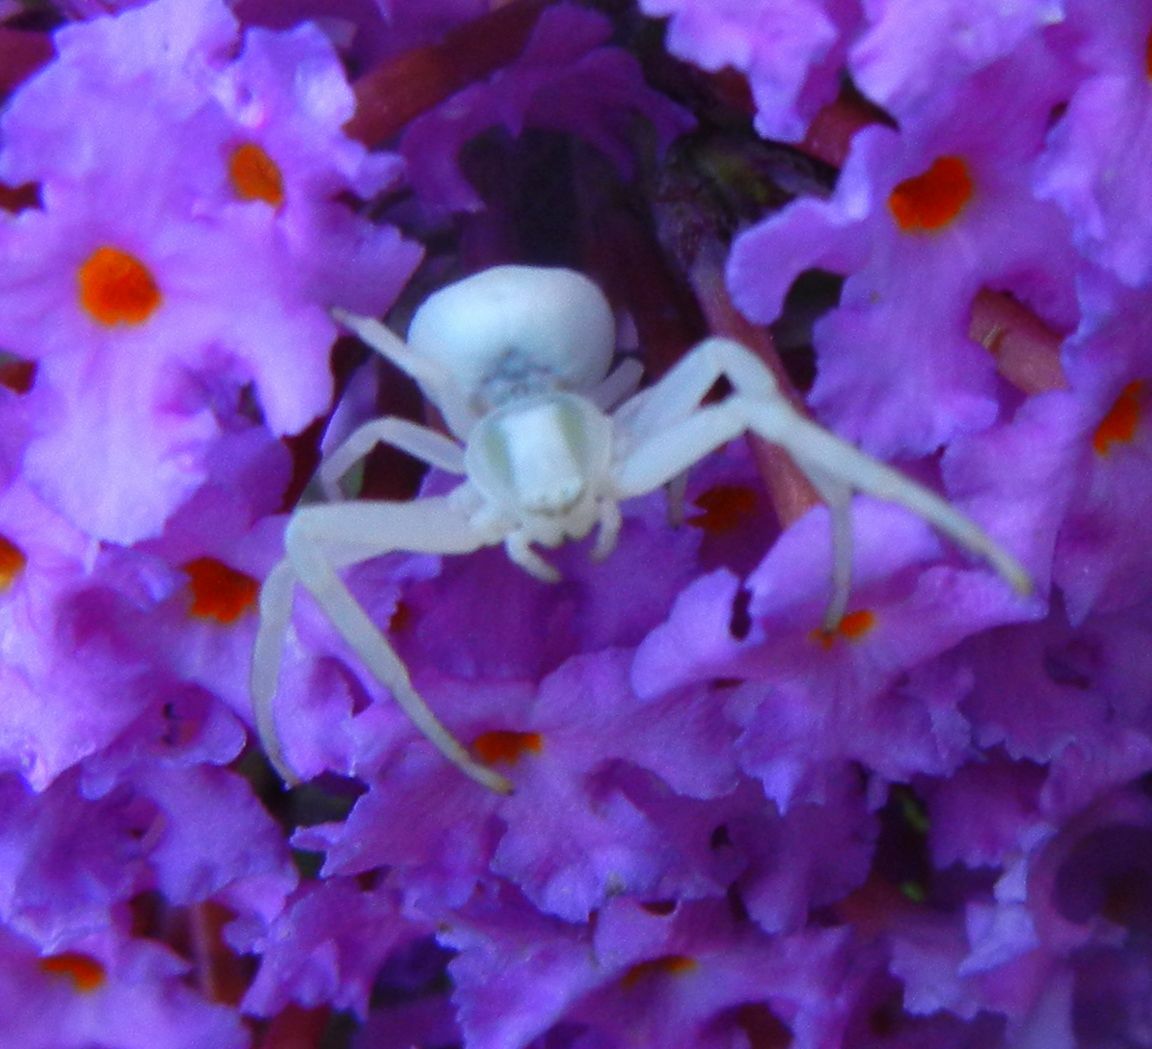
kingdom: Animalia
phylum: Arthropoda
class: Arachnida
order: Araneae
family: Thomisidae
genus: Misumena
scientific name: Misumena vatia
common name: Goldenrod crab spider
